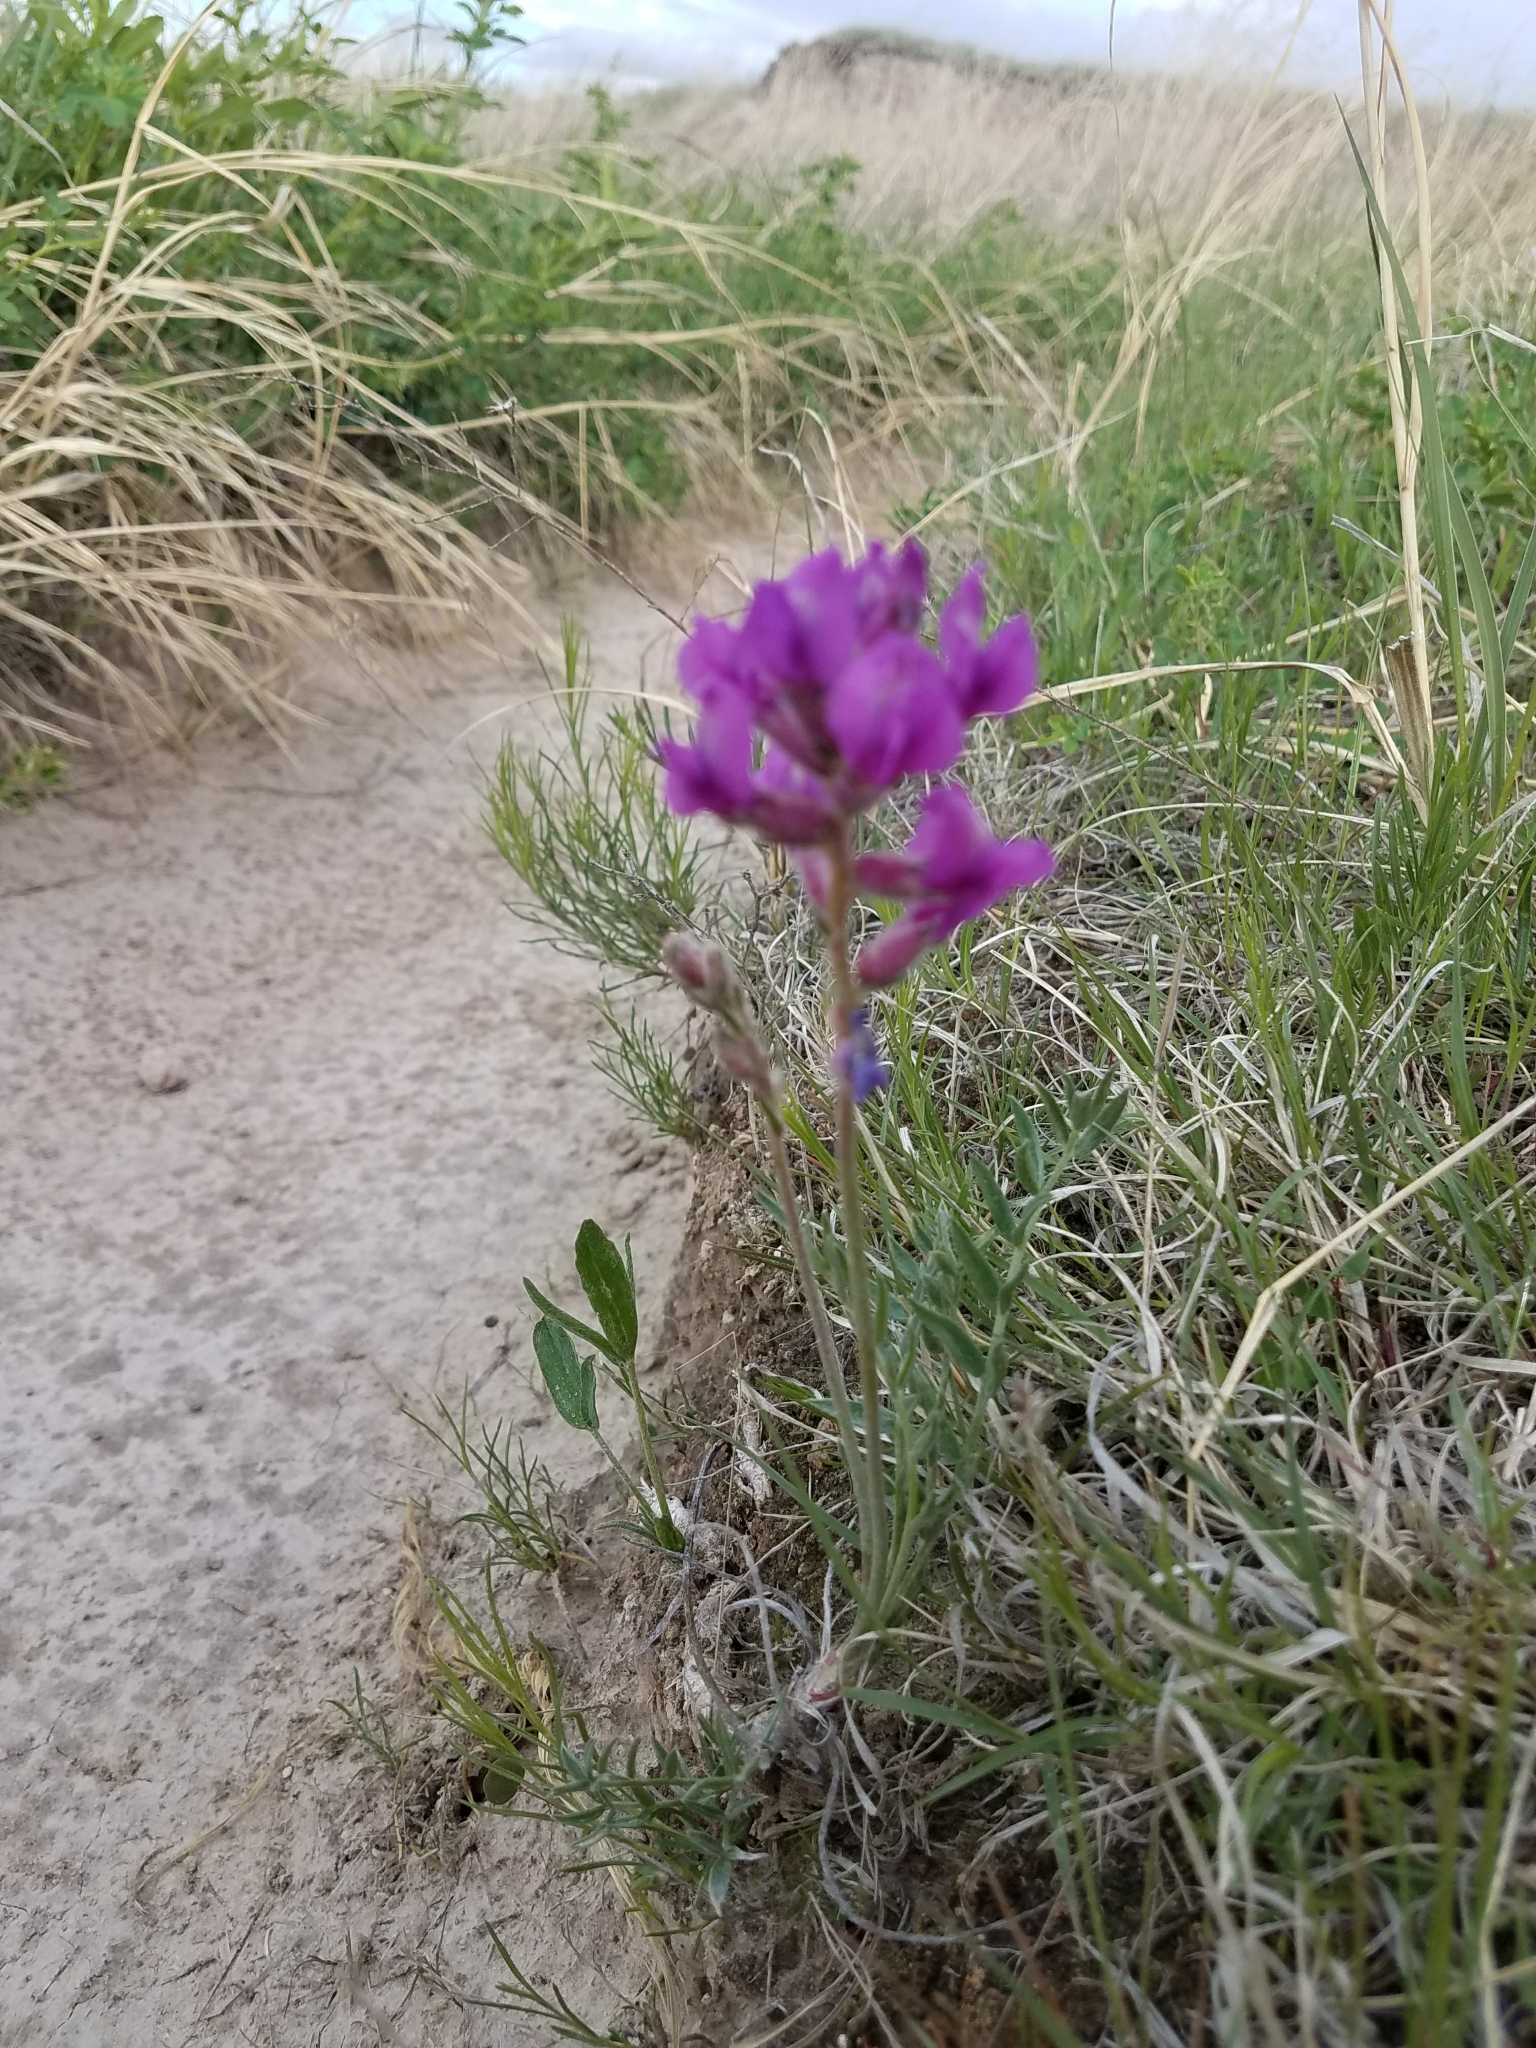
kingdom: Plantae
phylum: Tracheophyta
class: Magnoliopsida
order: Fabales
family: Fabaceae
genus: Oxytropis
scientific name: Oxytropis lambertii
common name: Purple locoweed
